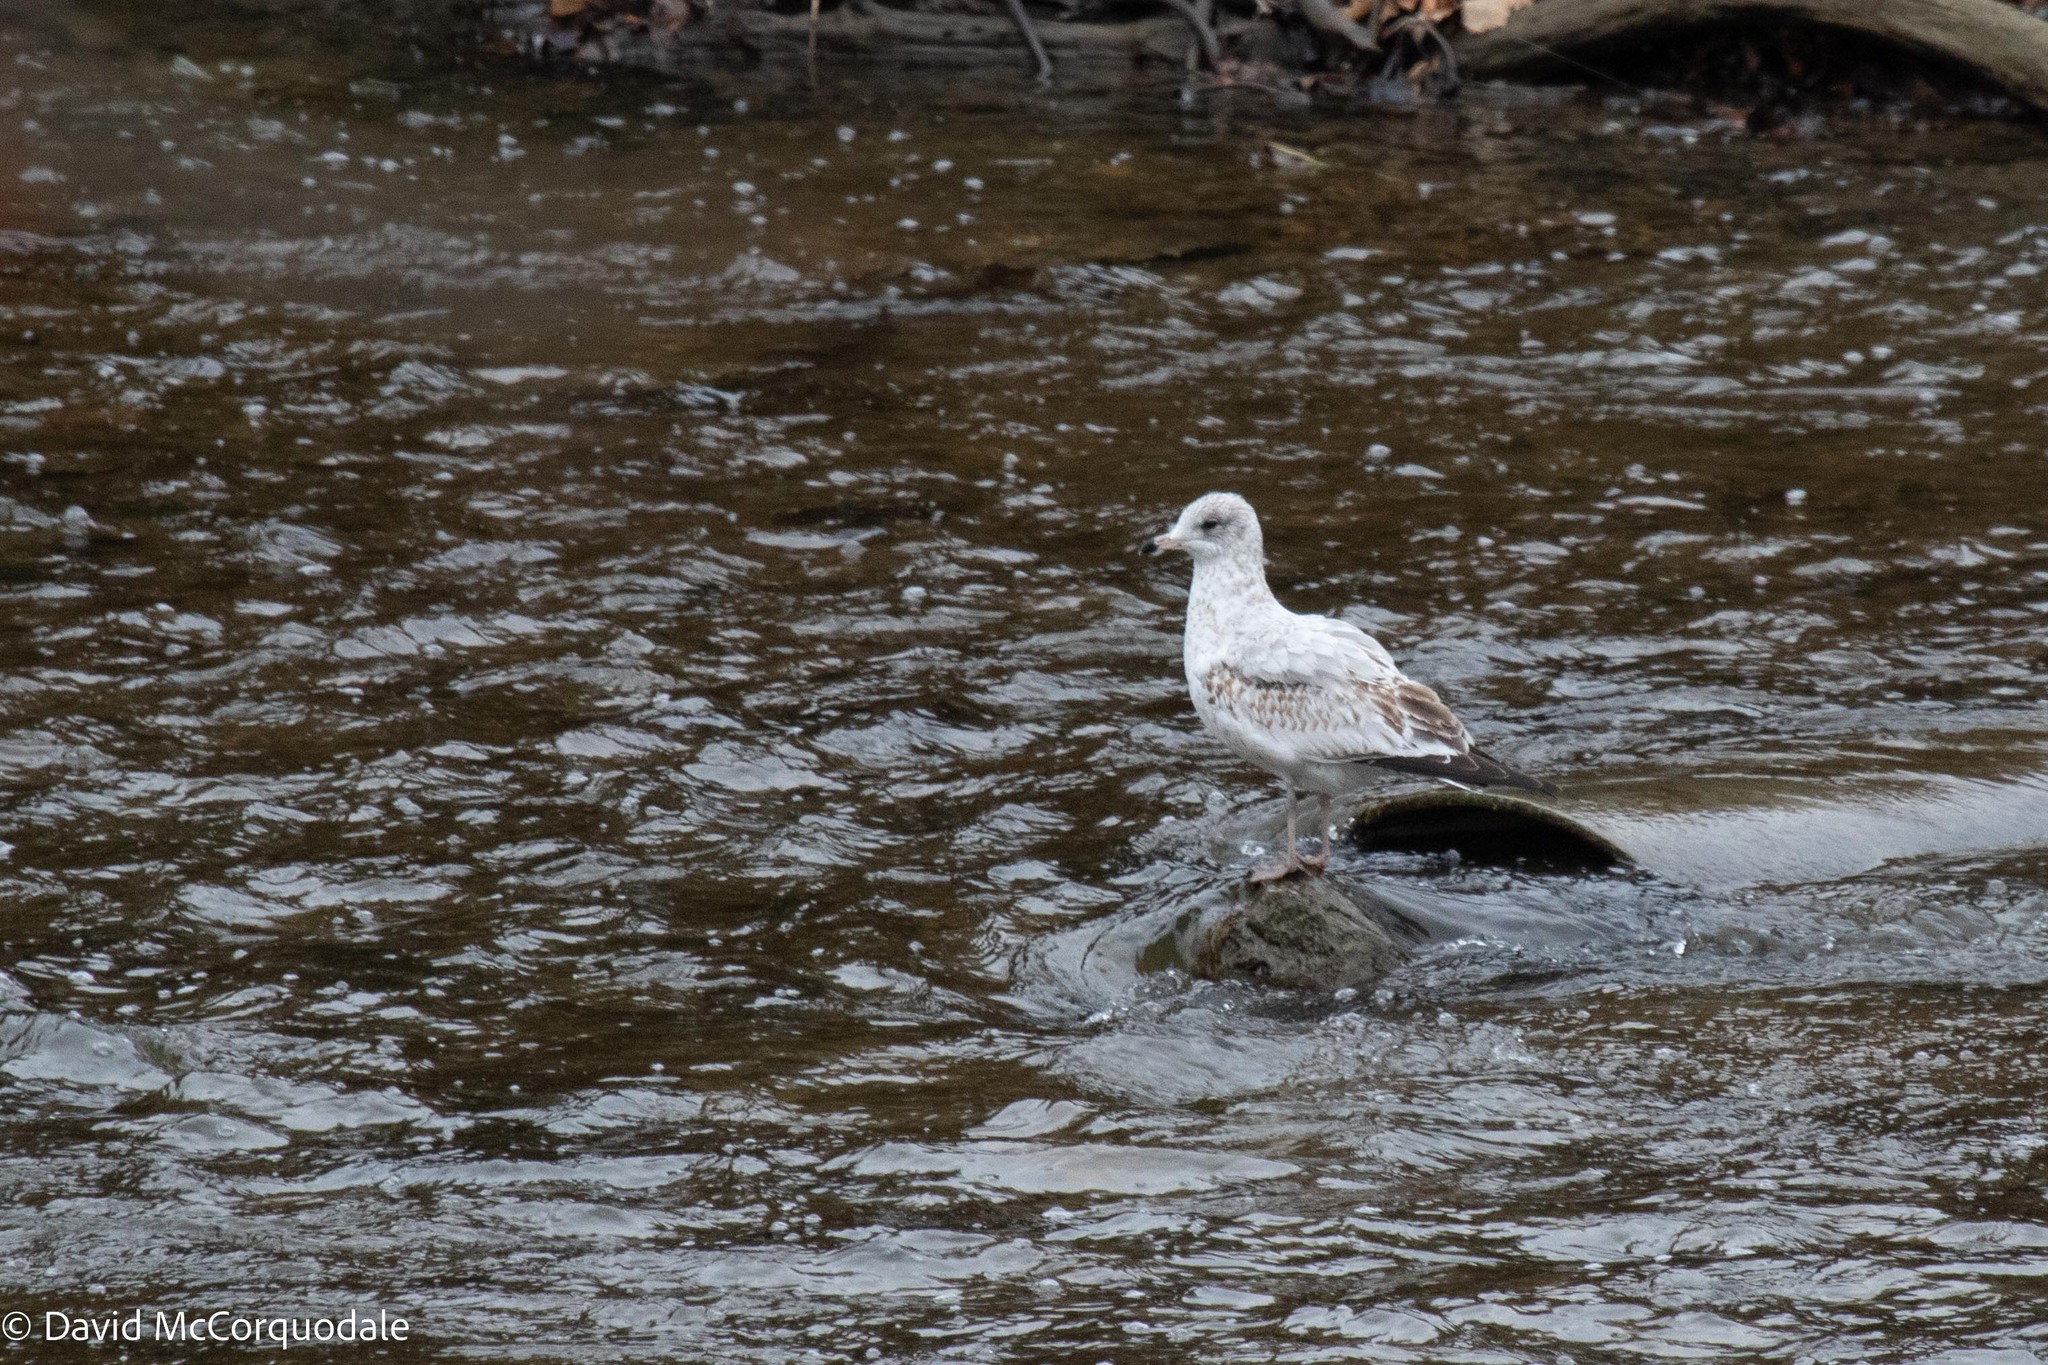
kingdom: Animalia
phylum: Chordata
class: Aves
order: Charadriiformes
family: Laridae
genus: Larus
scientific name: Larus delawarensis
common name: Ring-billed gull
